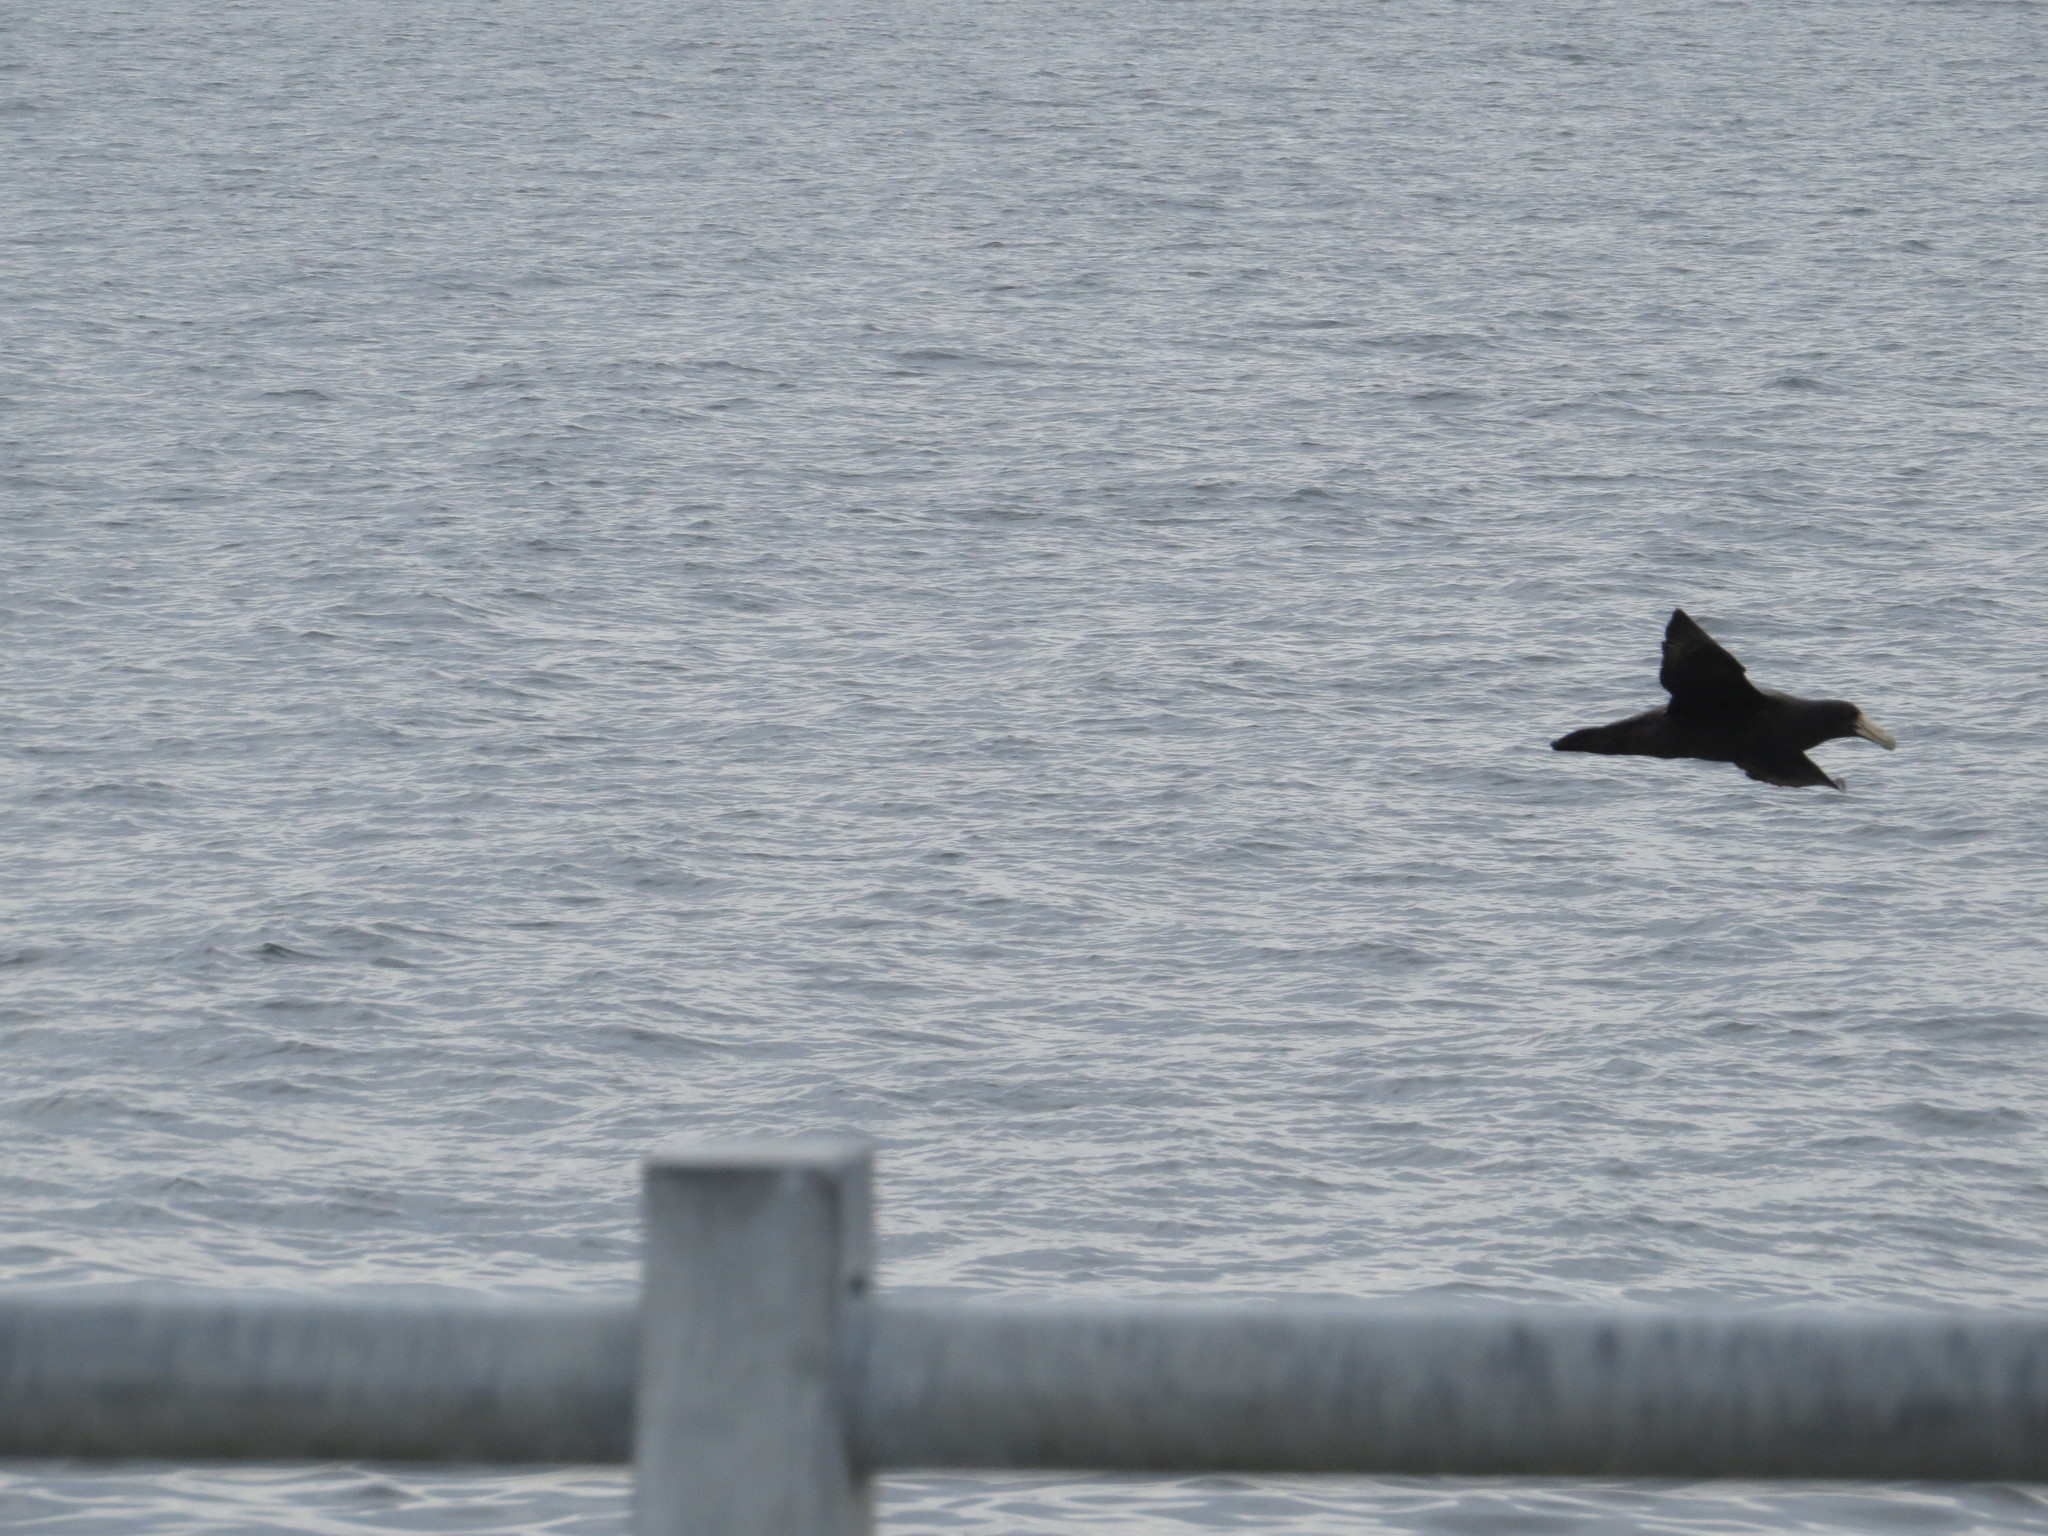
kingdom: Animalia
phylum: Chordata
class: Aves
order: Procellariiformes
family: Procellariidae
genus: Macronectes
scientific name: Macronectes giganteus
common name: Southern giant petrel
